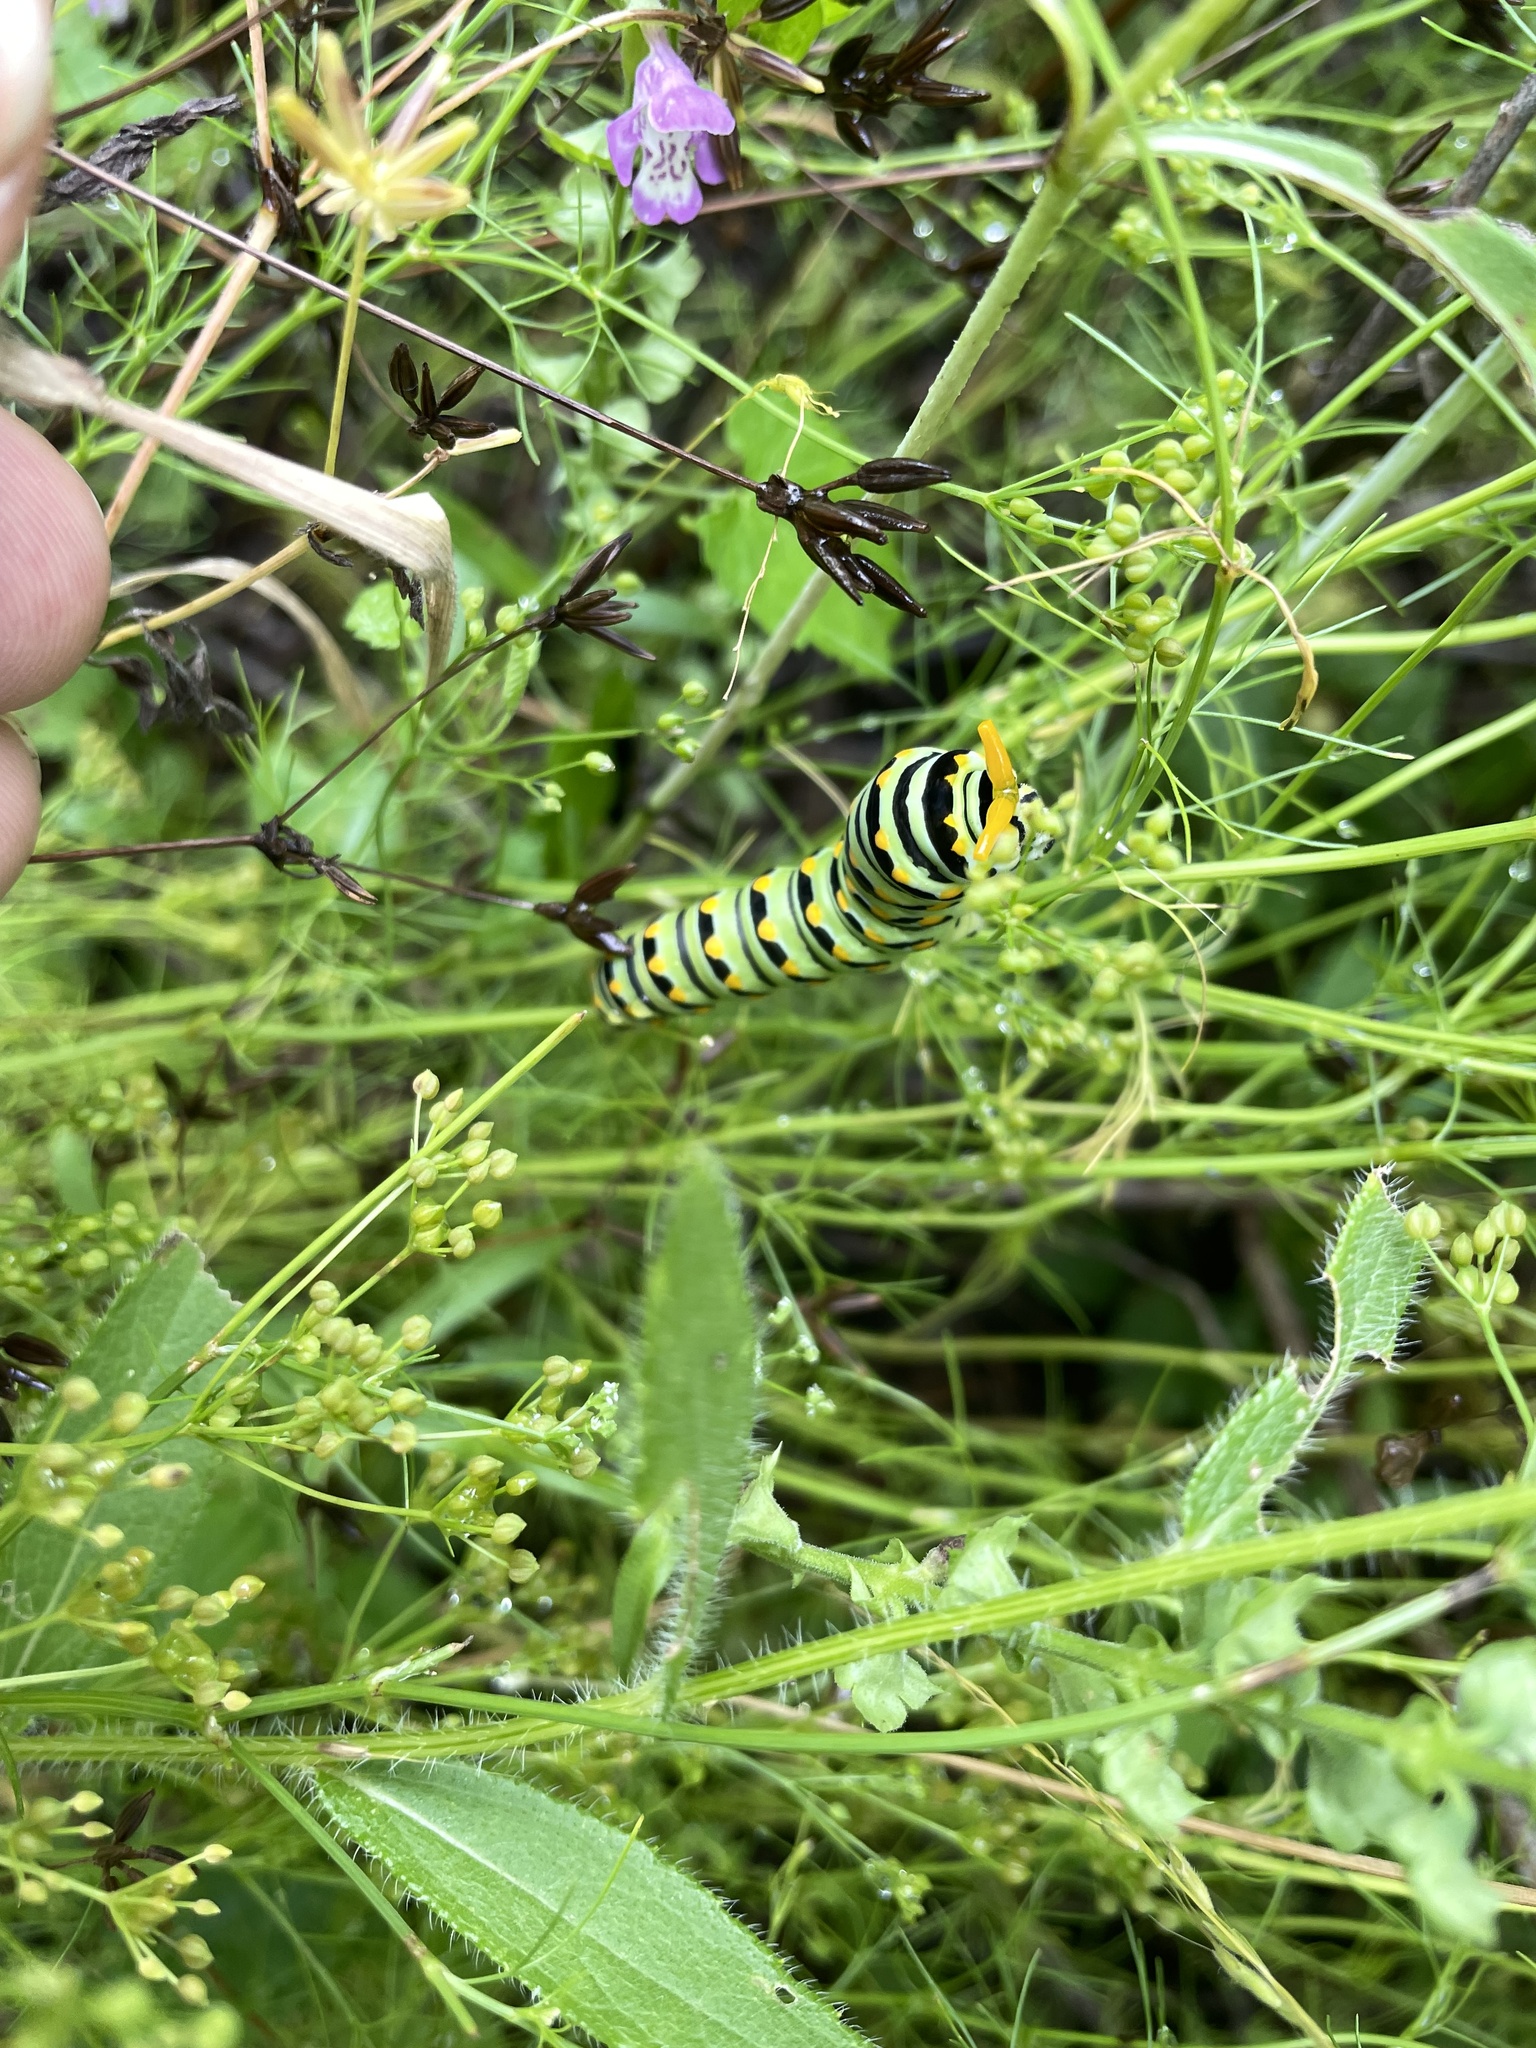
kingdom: Animalia
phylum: Arthropoda
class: Insecta
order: Lepidoptera
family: Papilionidae
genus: Papilio
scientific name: Papilio polyxenes
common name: Black swallowtail
